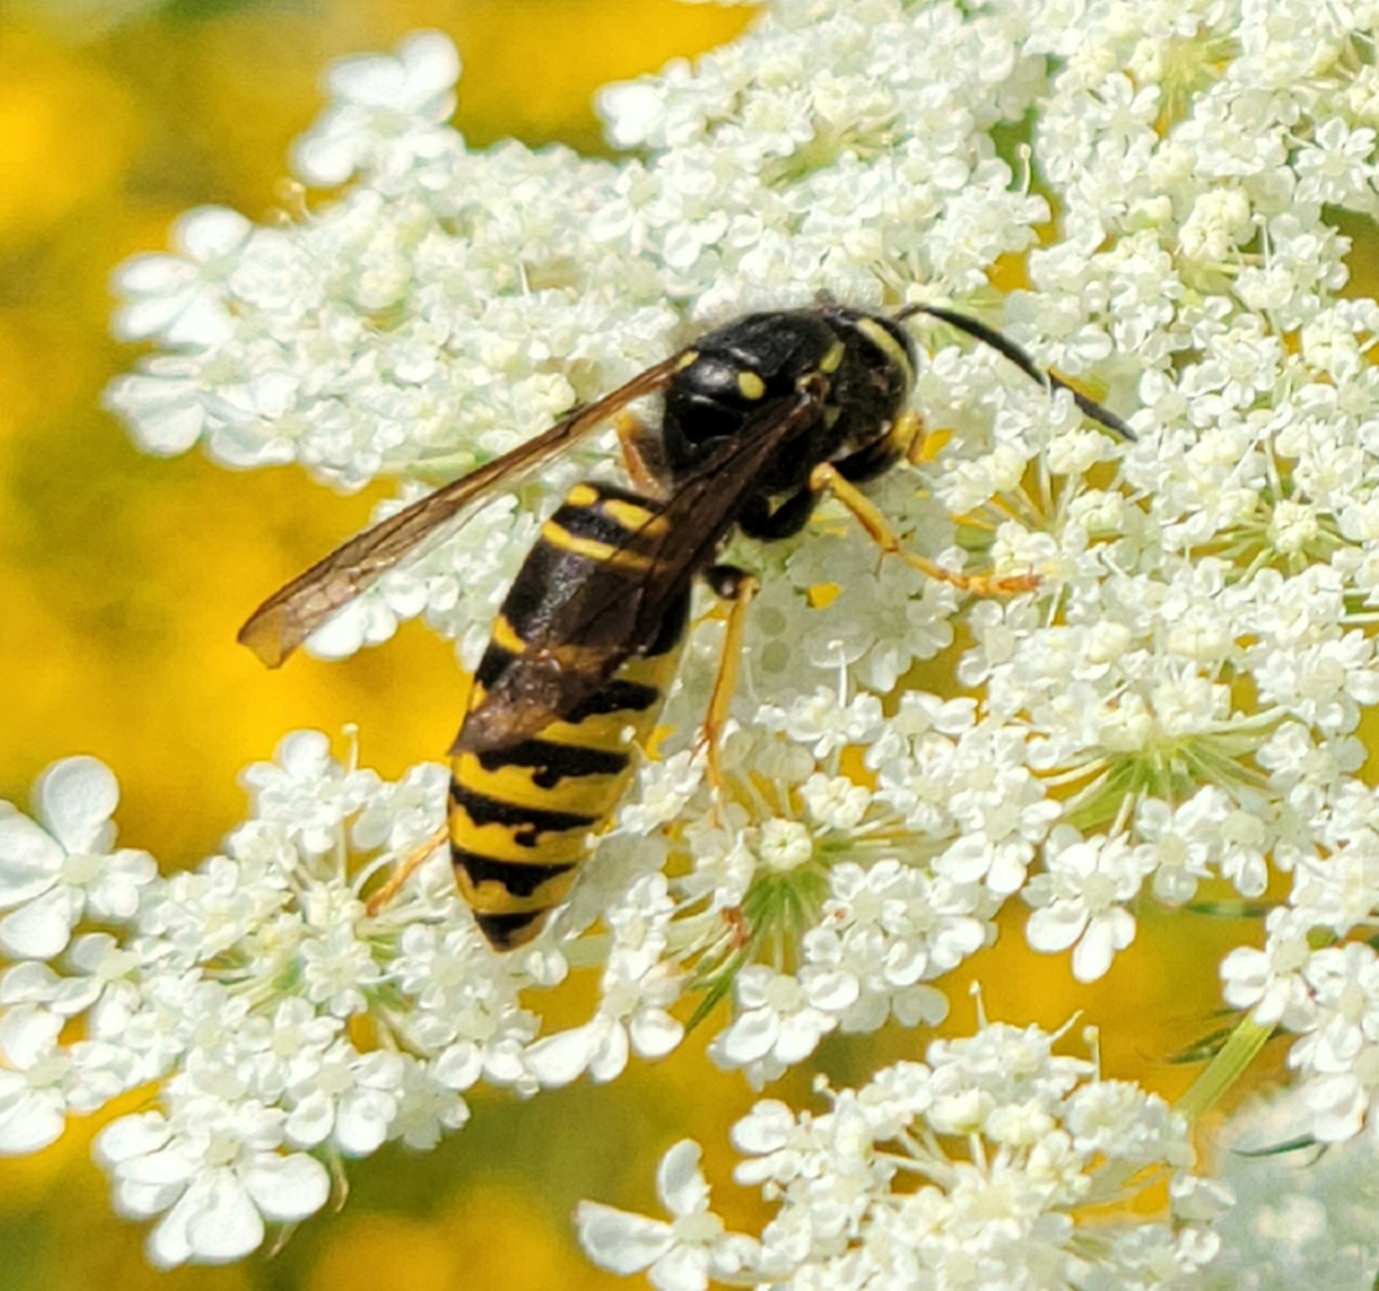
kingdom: Animalia
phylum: Arthropoda
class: Insecta
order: Hymenoptera
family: Vespidae
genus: Vespula
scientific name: Vespula vidua
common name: Widow yellowjacket
